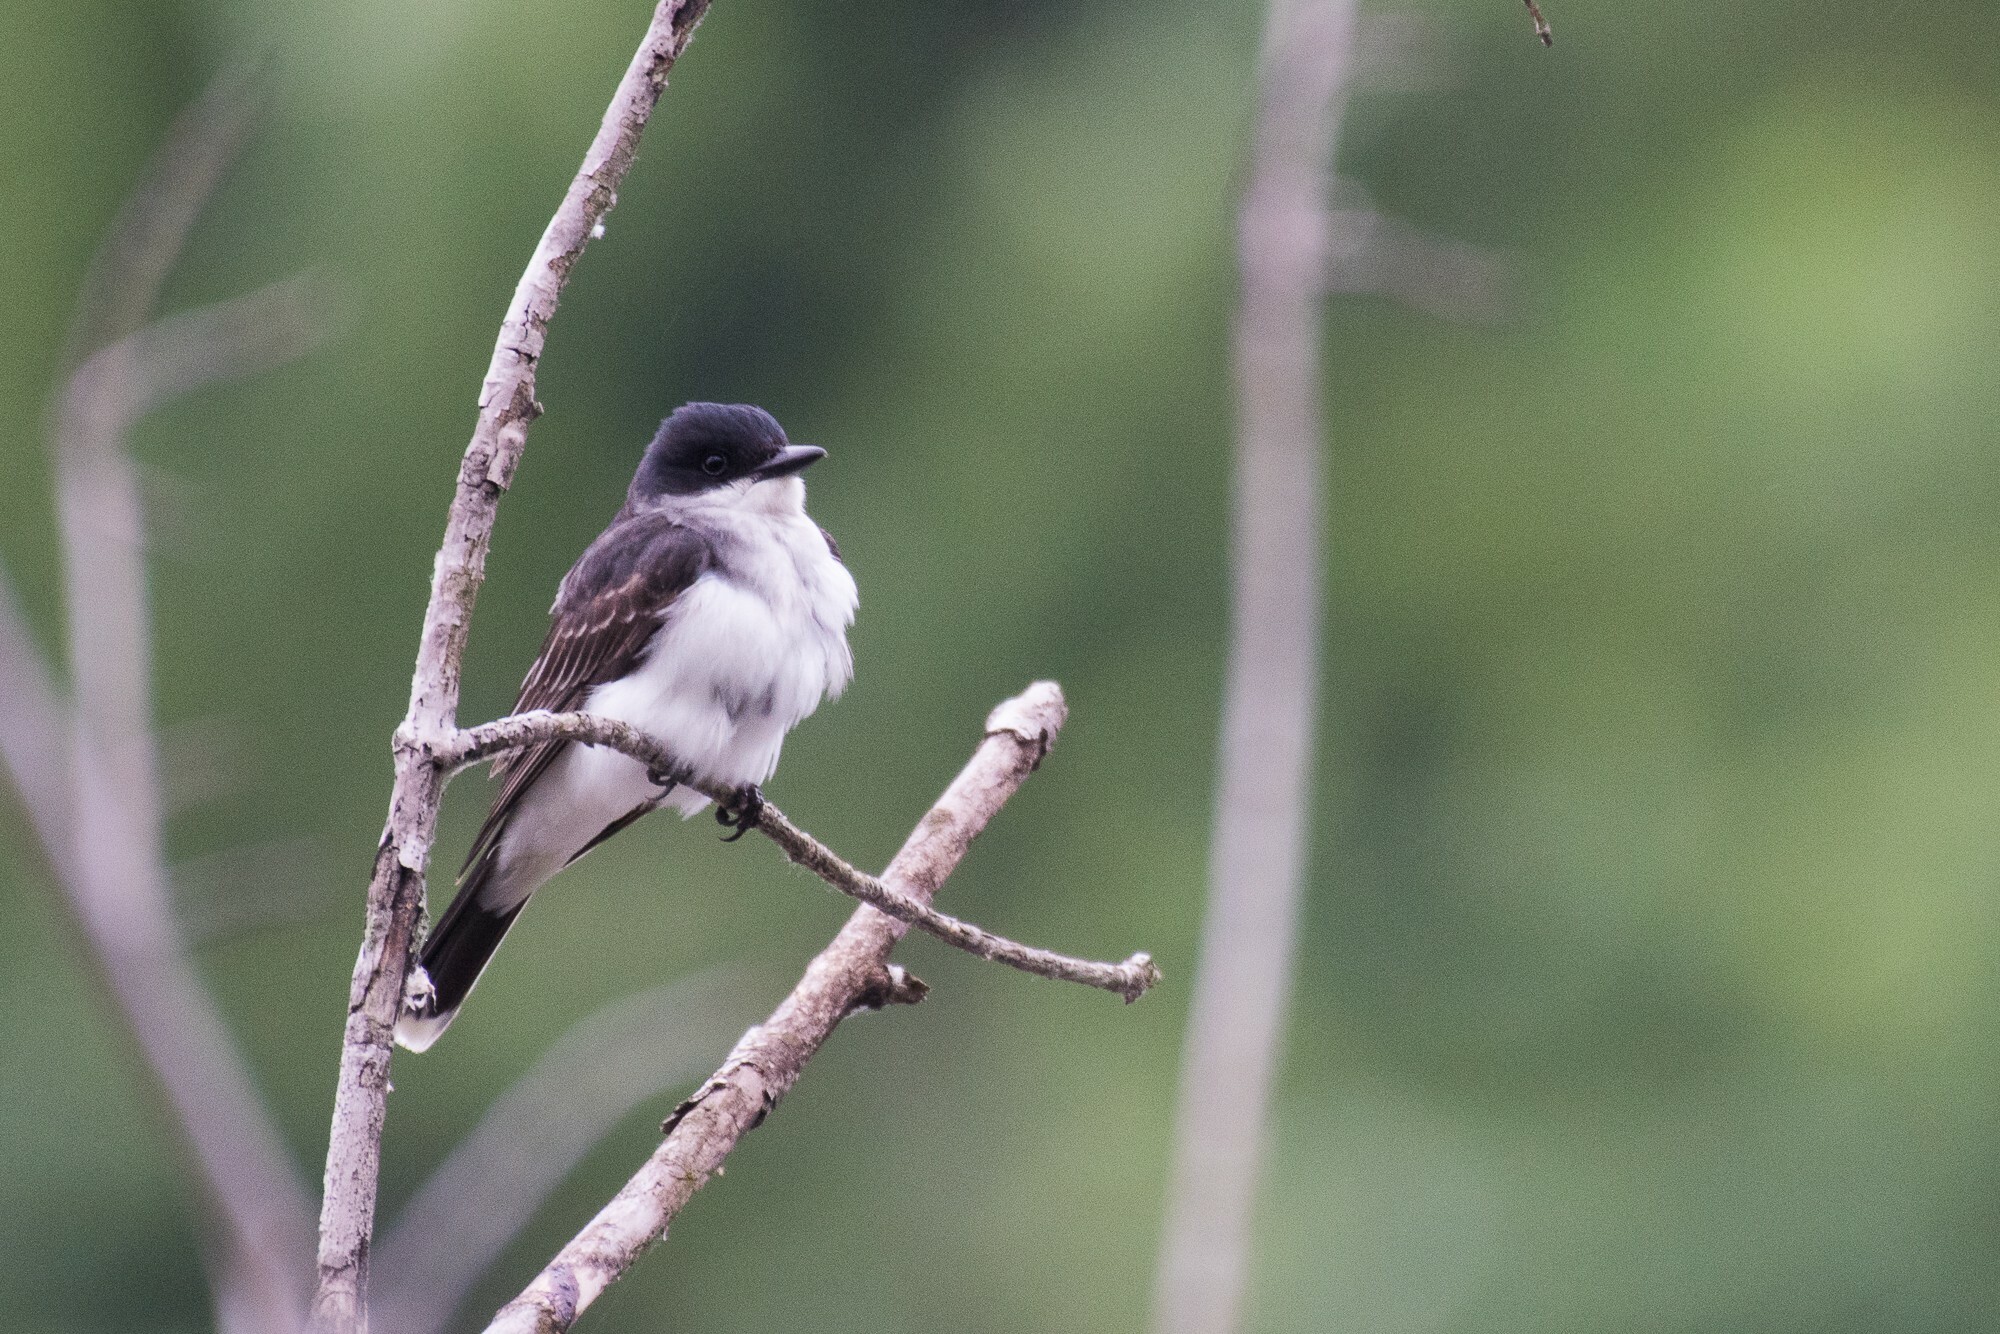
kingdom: Animalia
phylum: Chordata
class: Aves
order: Passeriformes
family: Tyrannidae
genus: Tyrannus
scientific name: Tyrannus tyrannus
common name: Eastern kingbird
